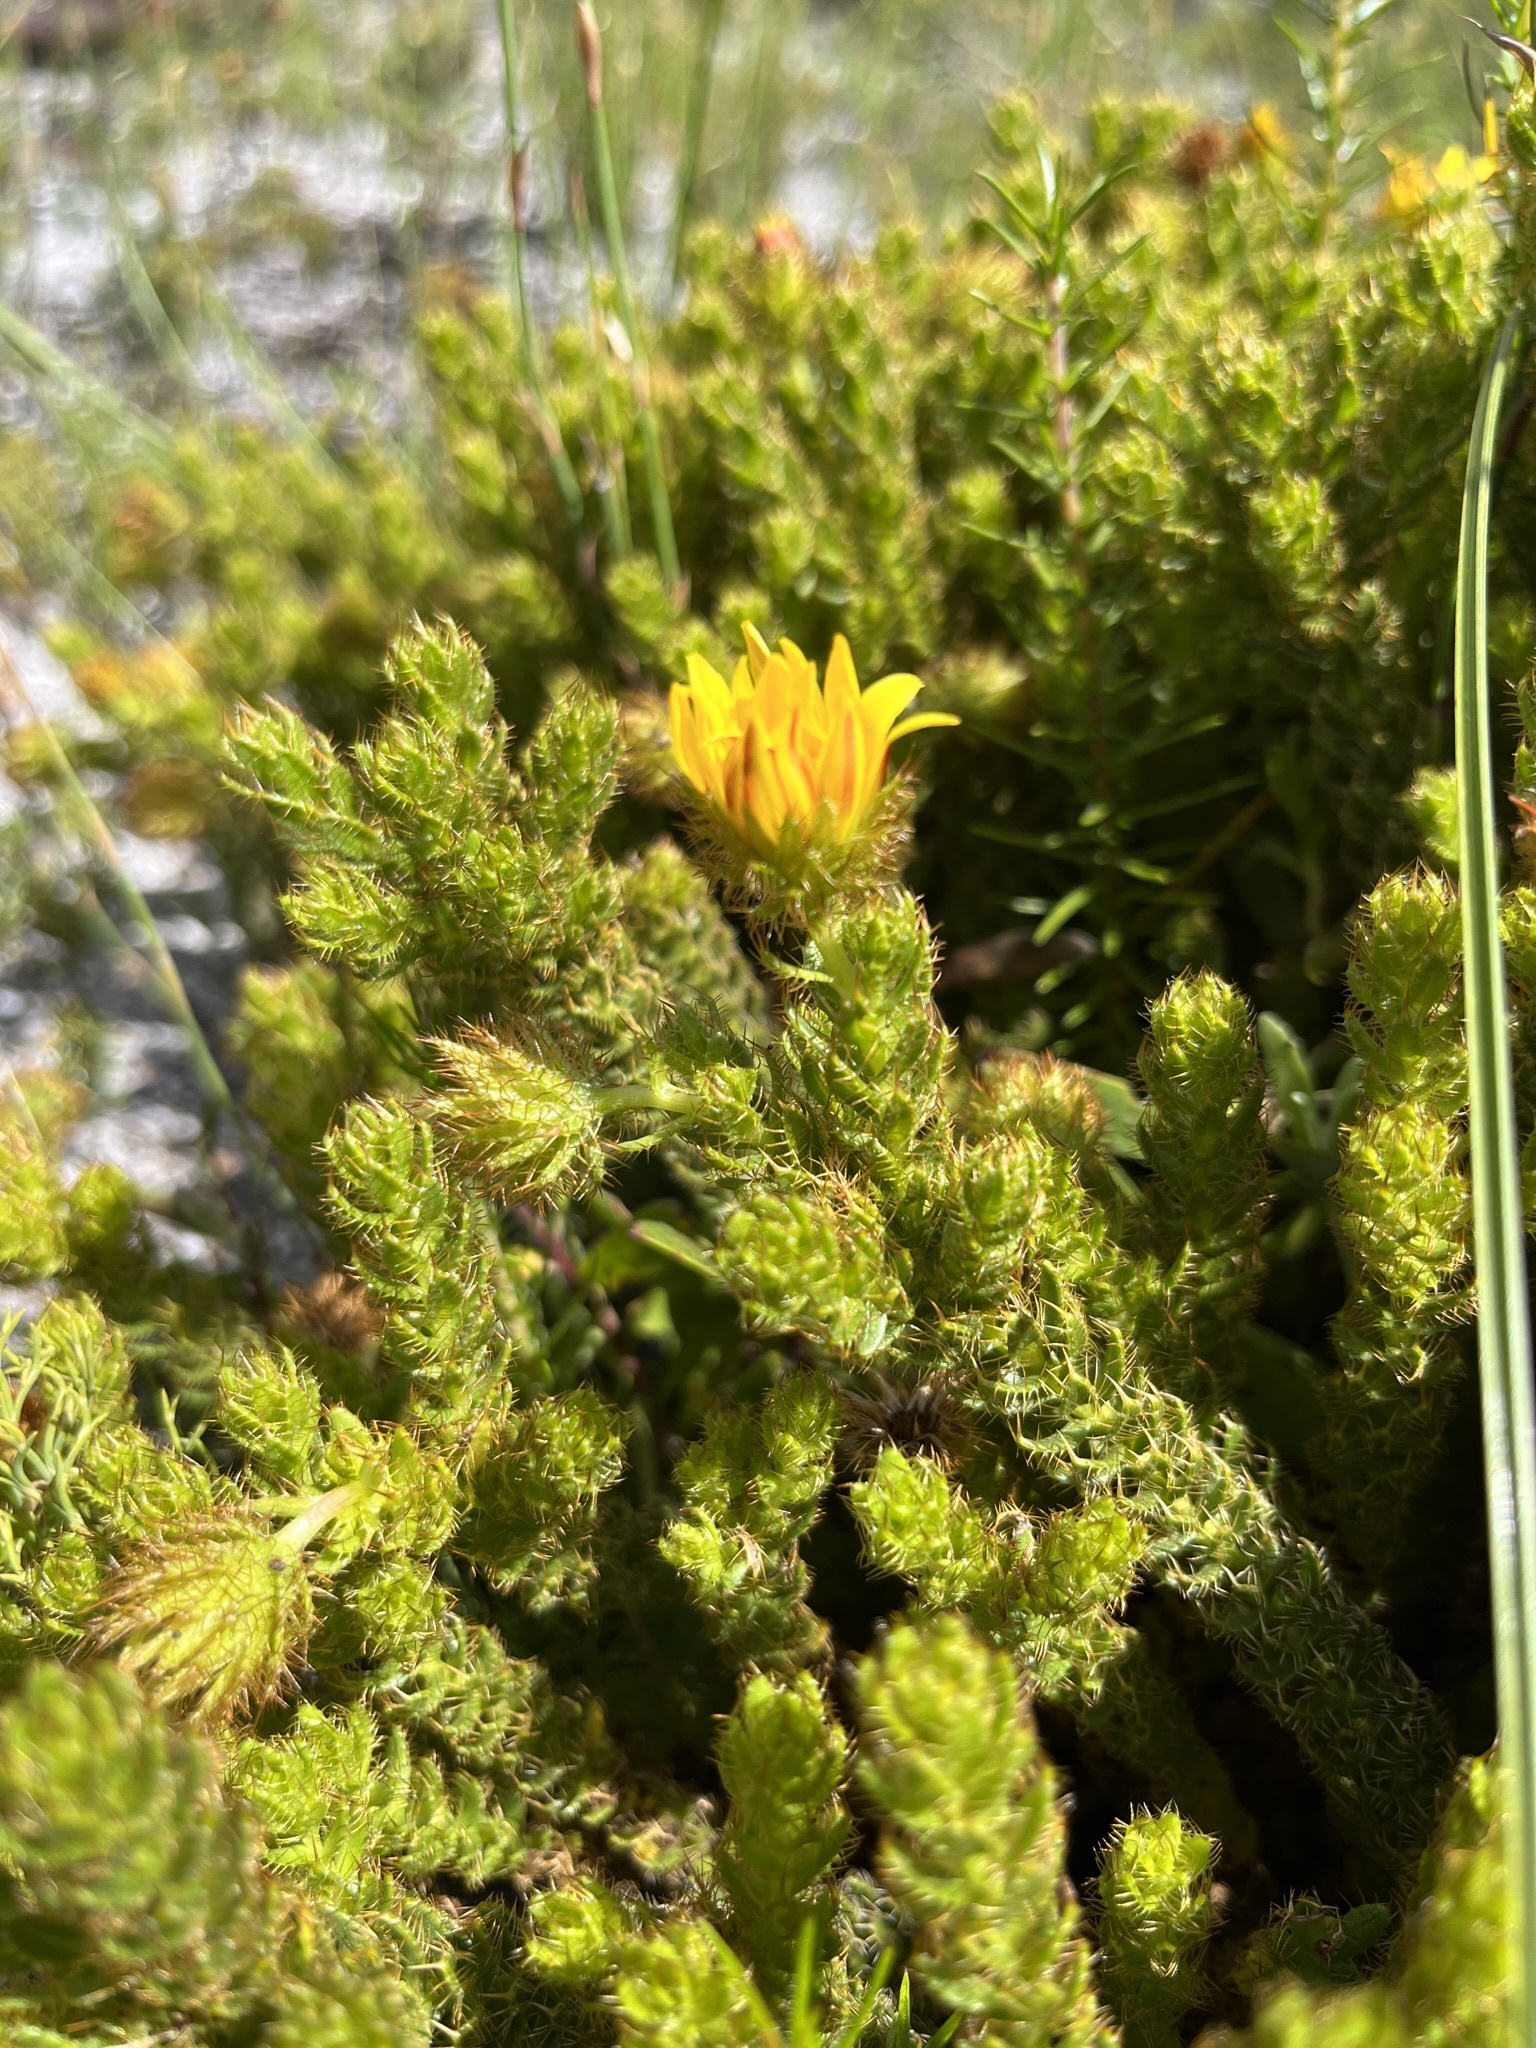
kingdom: Plantae
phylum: Tracheophyta
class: Magnoliopsida
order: Asterales
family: Asteraceae
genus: Cullumia
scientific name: Cullumia selago
